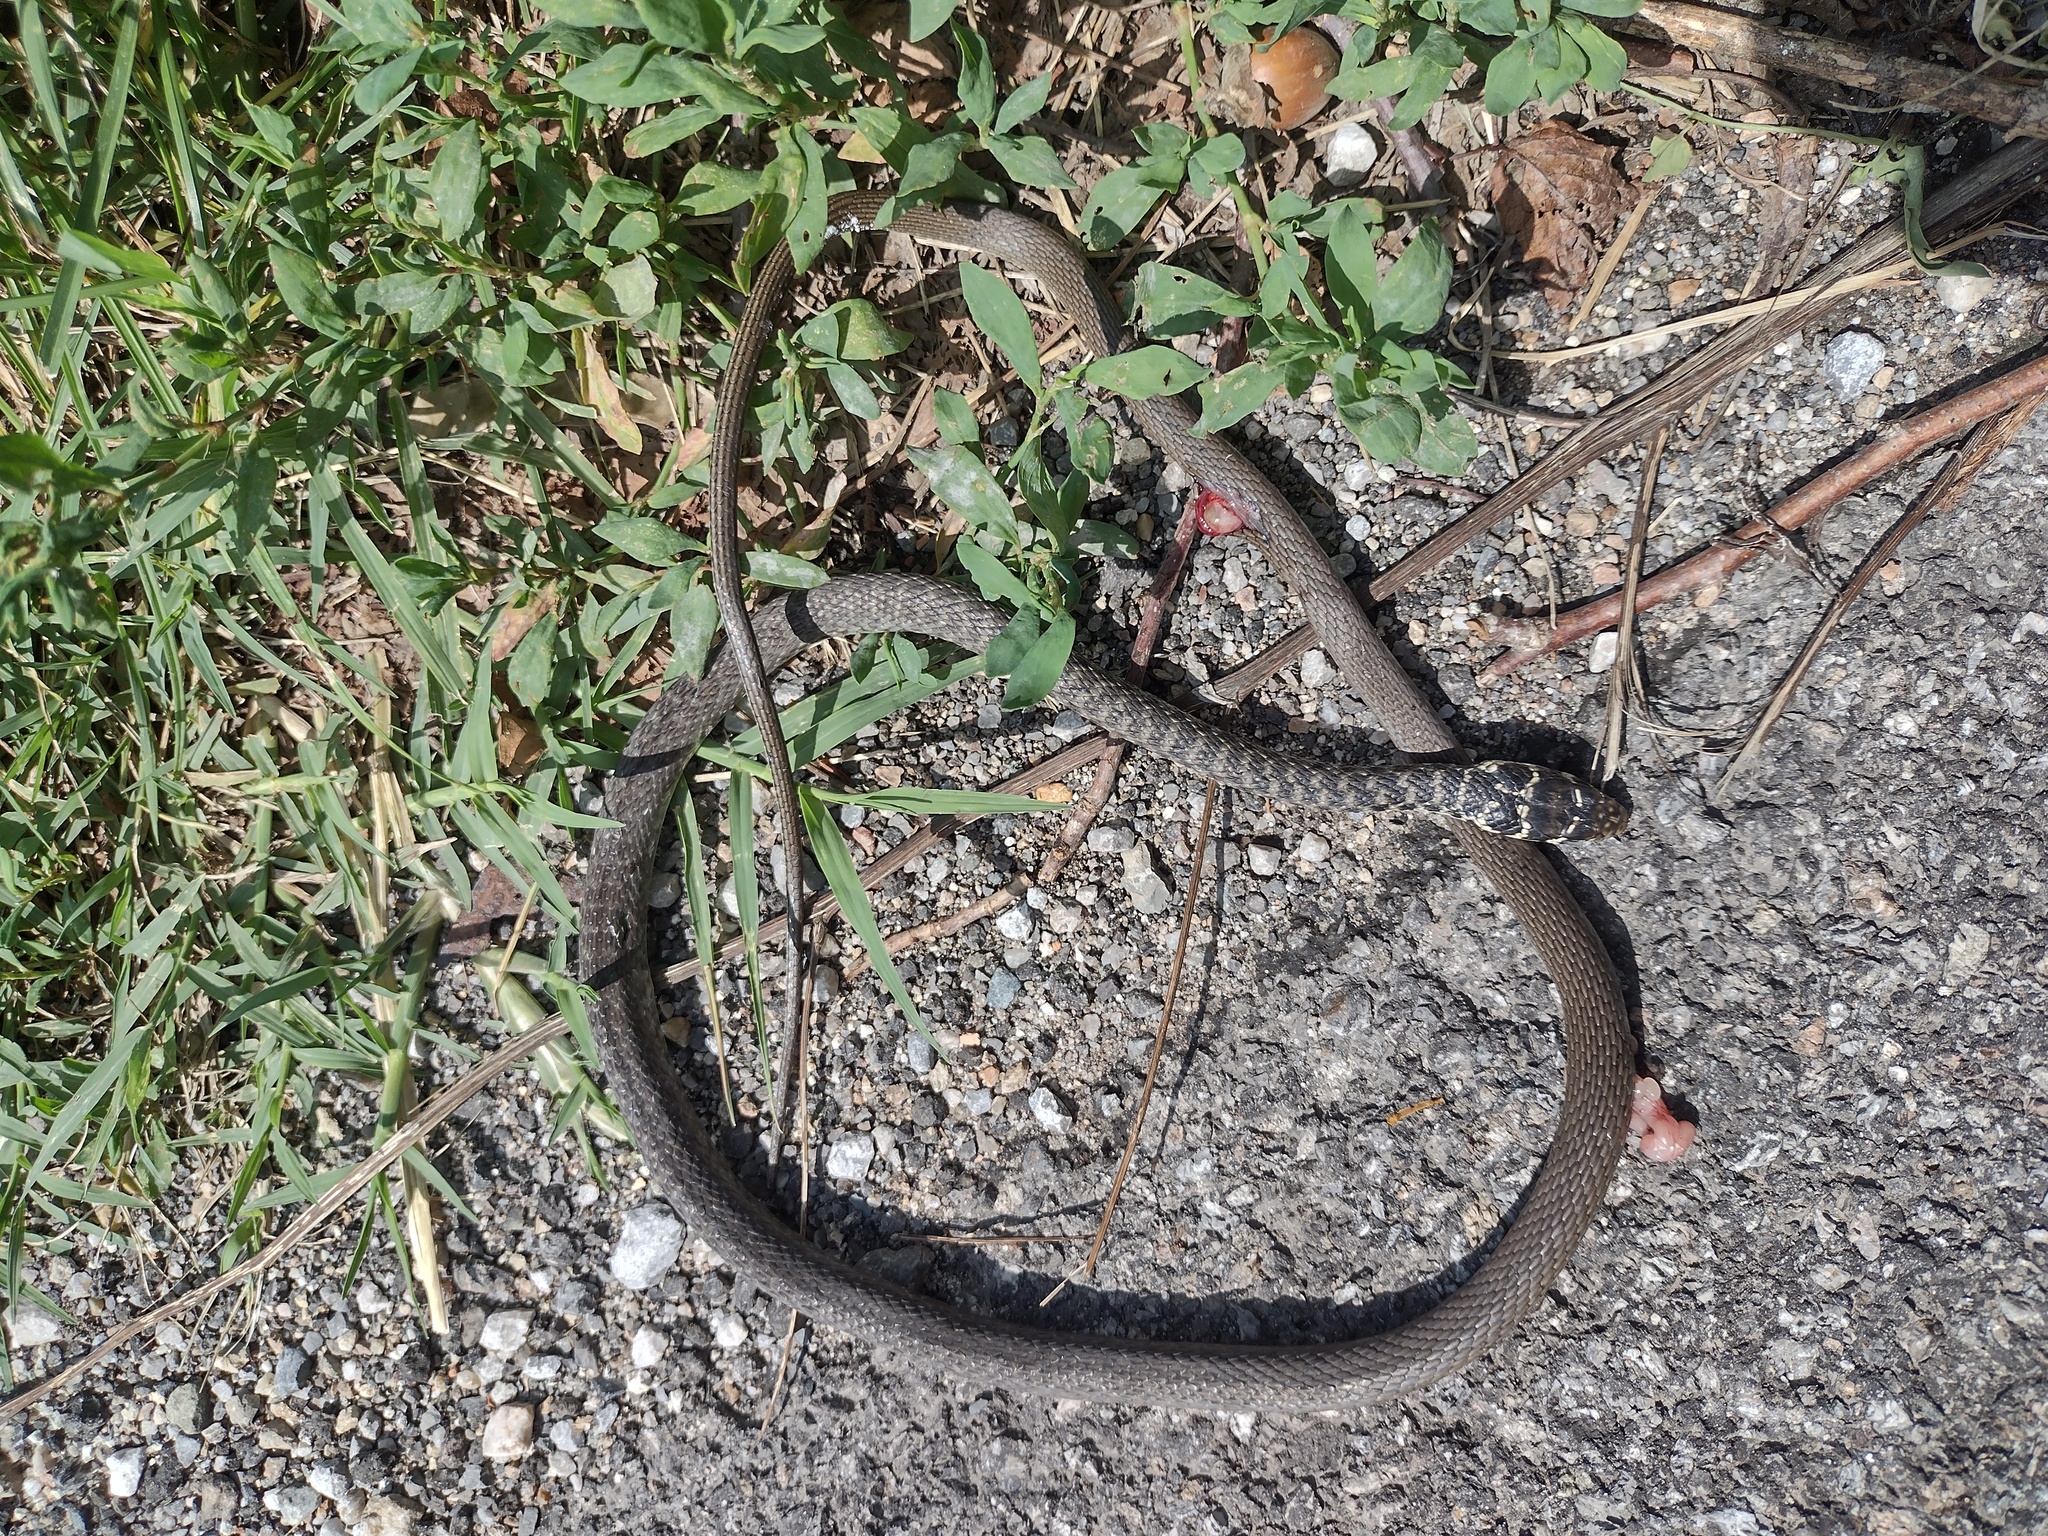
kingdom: Animalia
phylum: Chordata
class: Squamata
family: Colubridae
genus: Hierophis
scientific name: Hierophis viridiflavus
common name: Green whip snake
